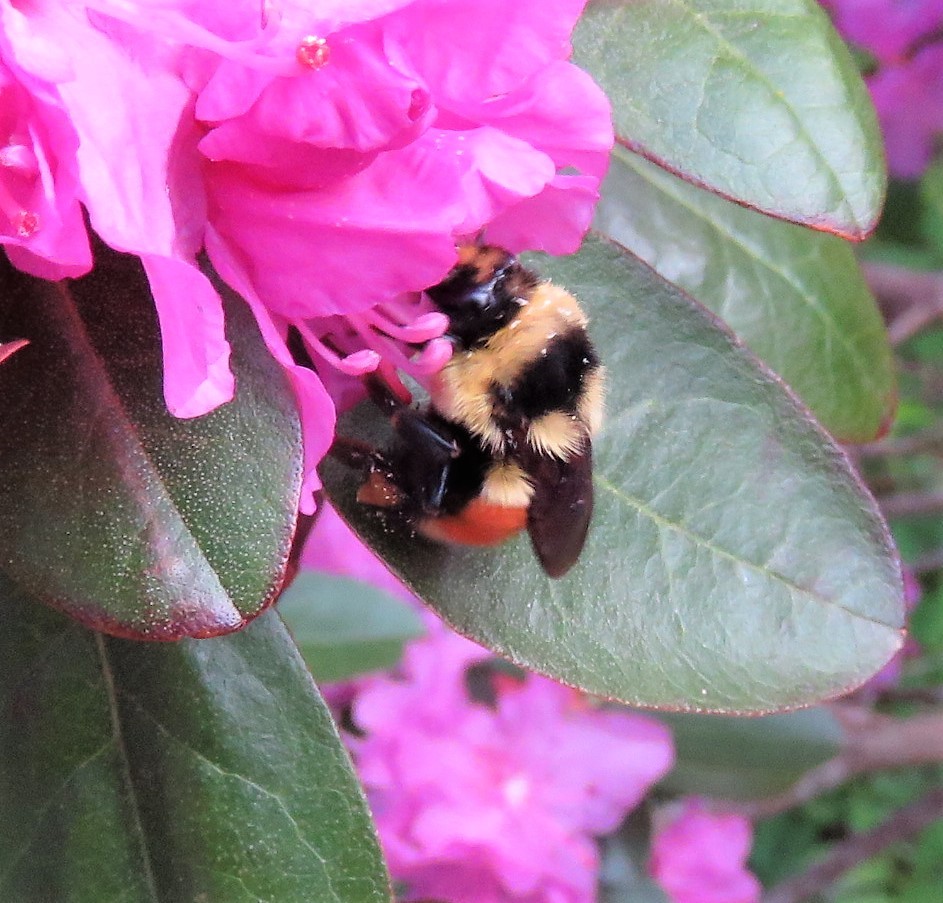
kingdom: Animalia
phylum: Arthropoda
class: Insecta
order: Hymenoptera
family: Apidae
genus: Bombus
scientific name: Bombus ternarius
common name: Tri-colored bumble bee
